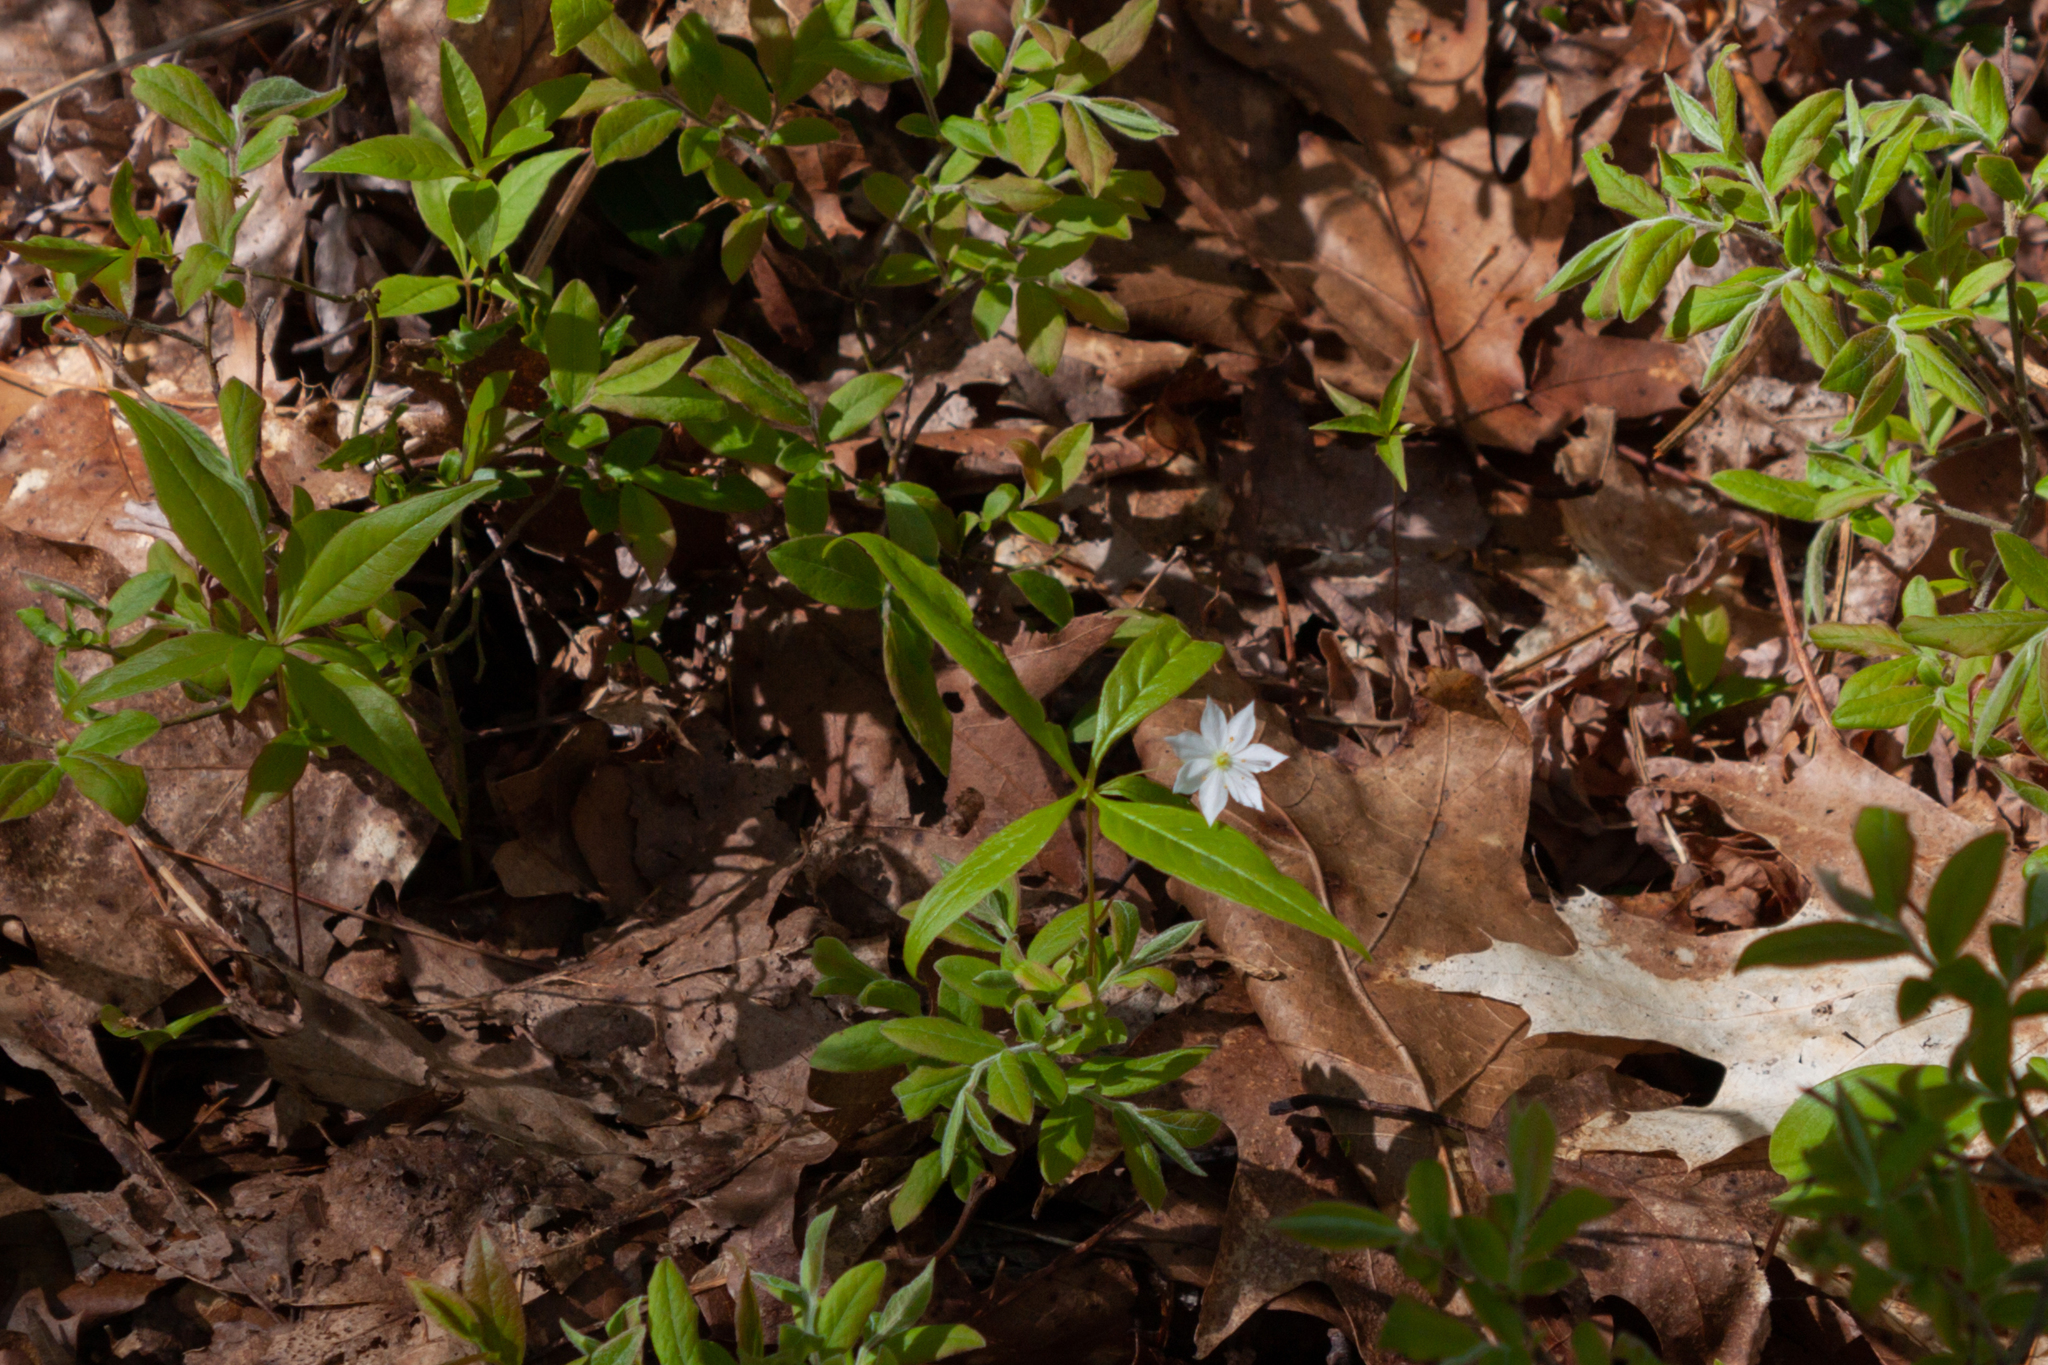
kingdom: Plantae
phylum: Tracheophyta
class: Magnoliopsida
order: Ericales
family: Primulaceae
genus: Lysimachia
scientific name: Lysimachia borealis
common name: American starflower
